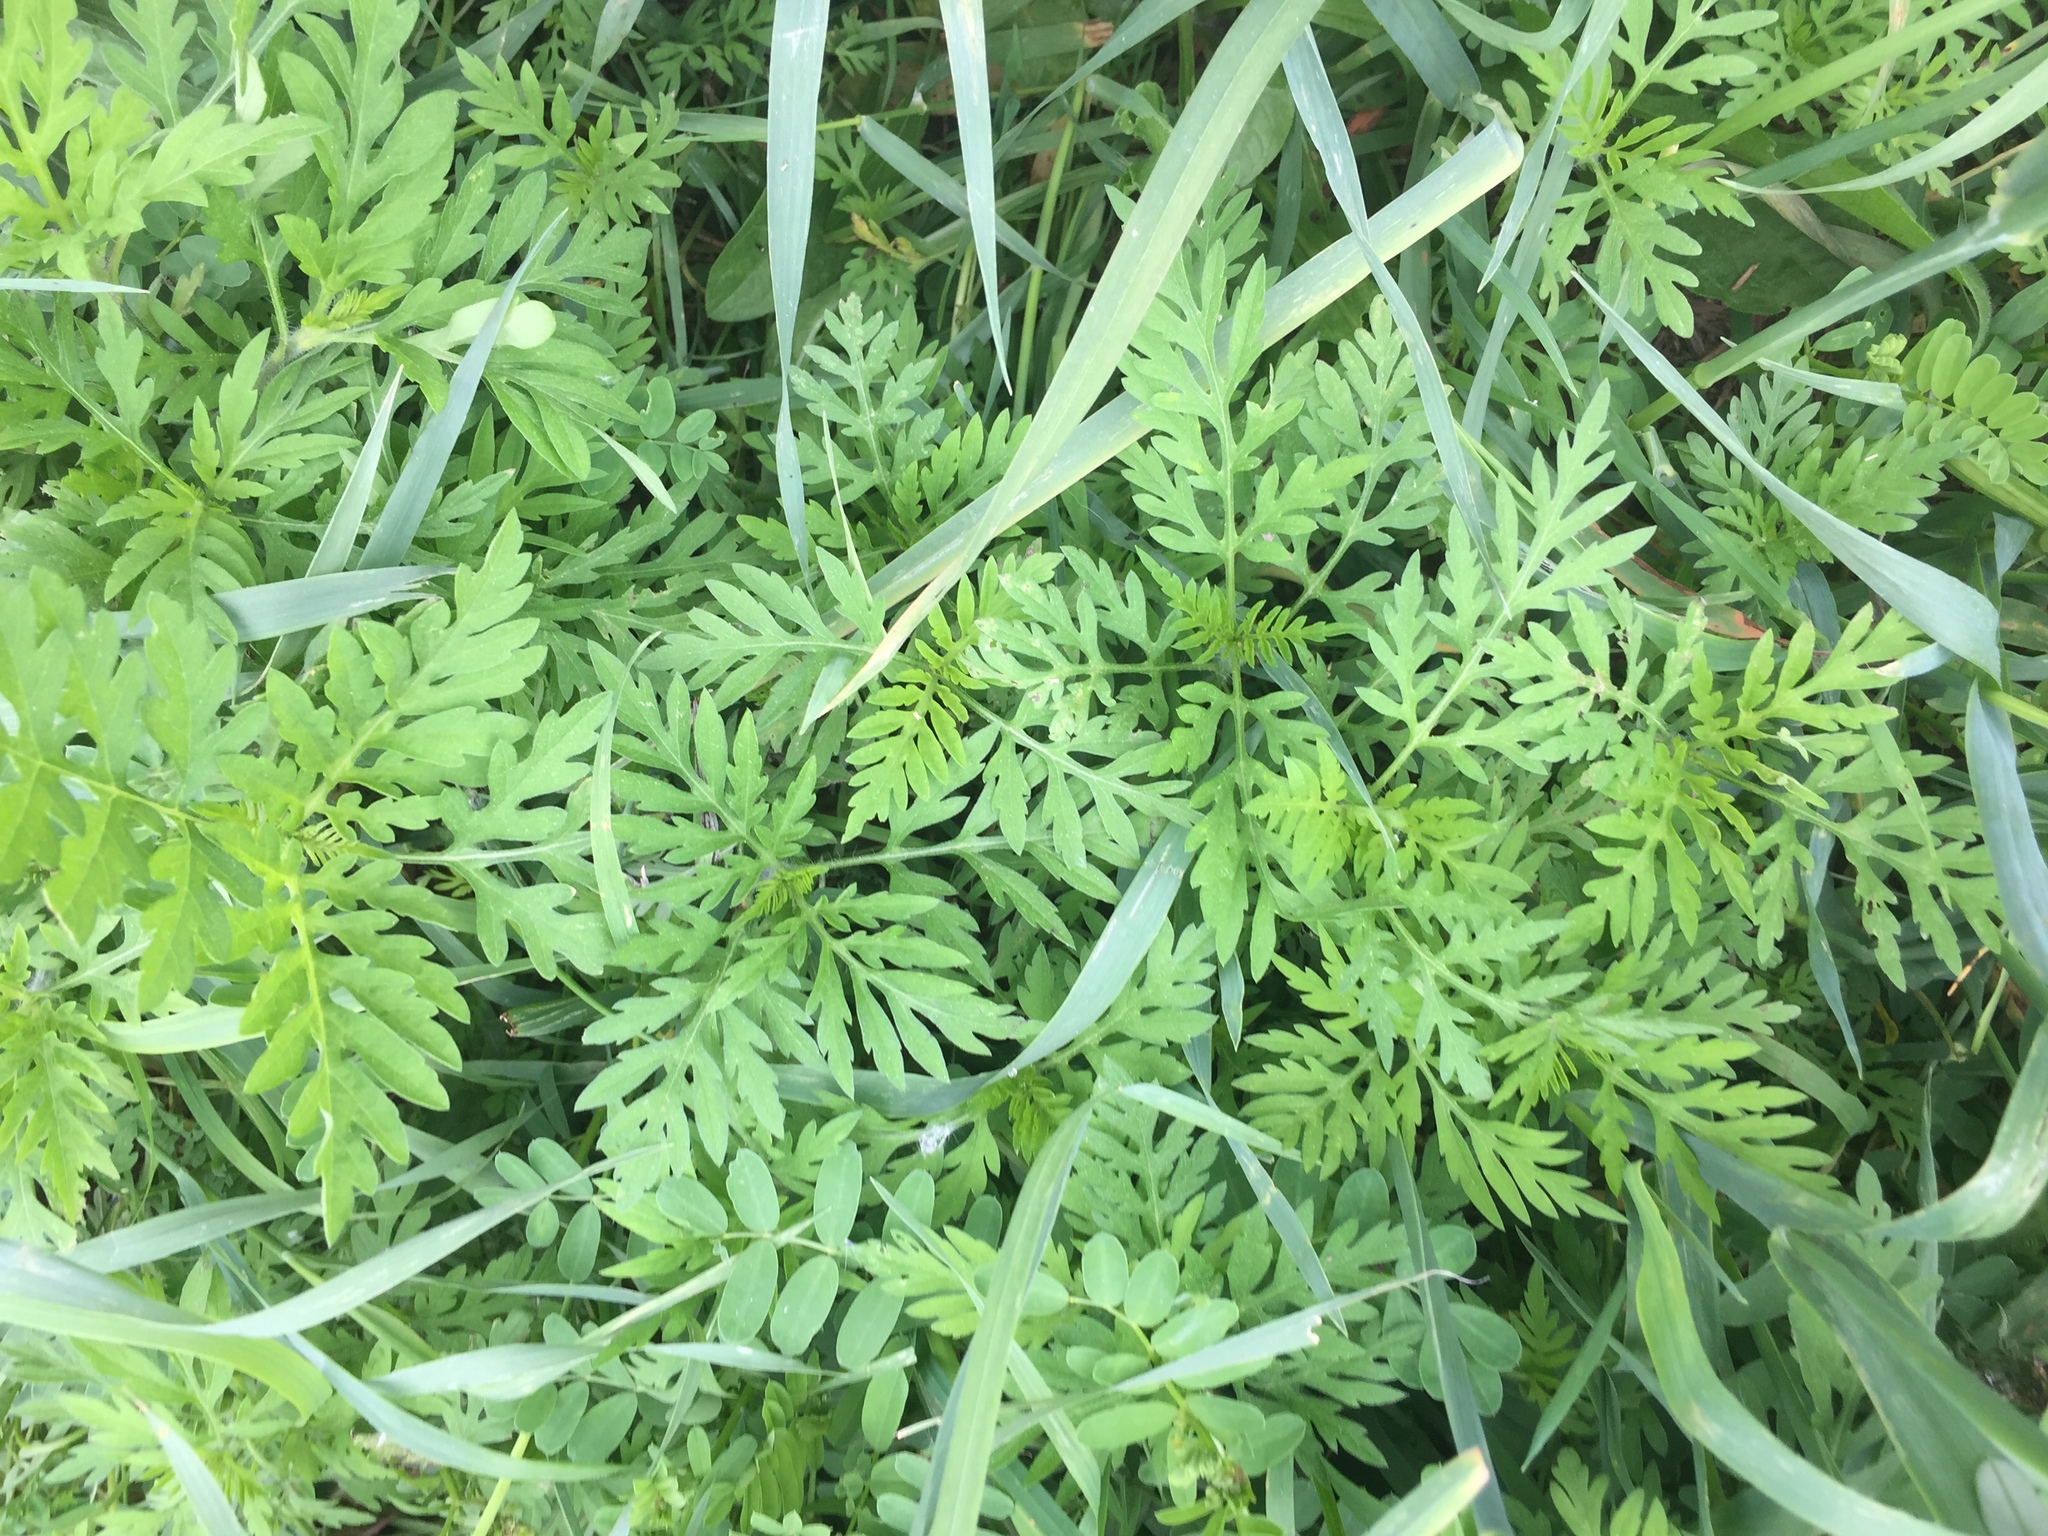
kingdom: Plantae
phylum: Tracheophyta
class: Magnoliopsida
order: Asterales
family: Asteraceae
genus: Ambrosia
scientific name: Ambrosia artemisiifolia
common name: Annual ragweed
